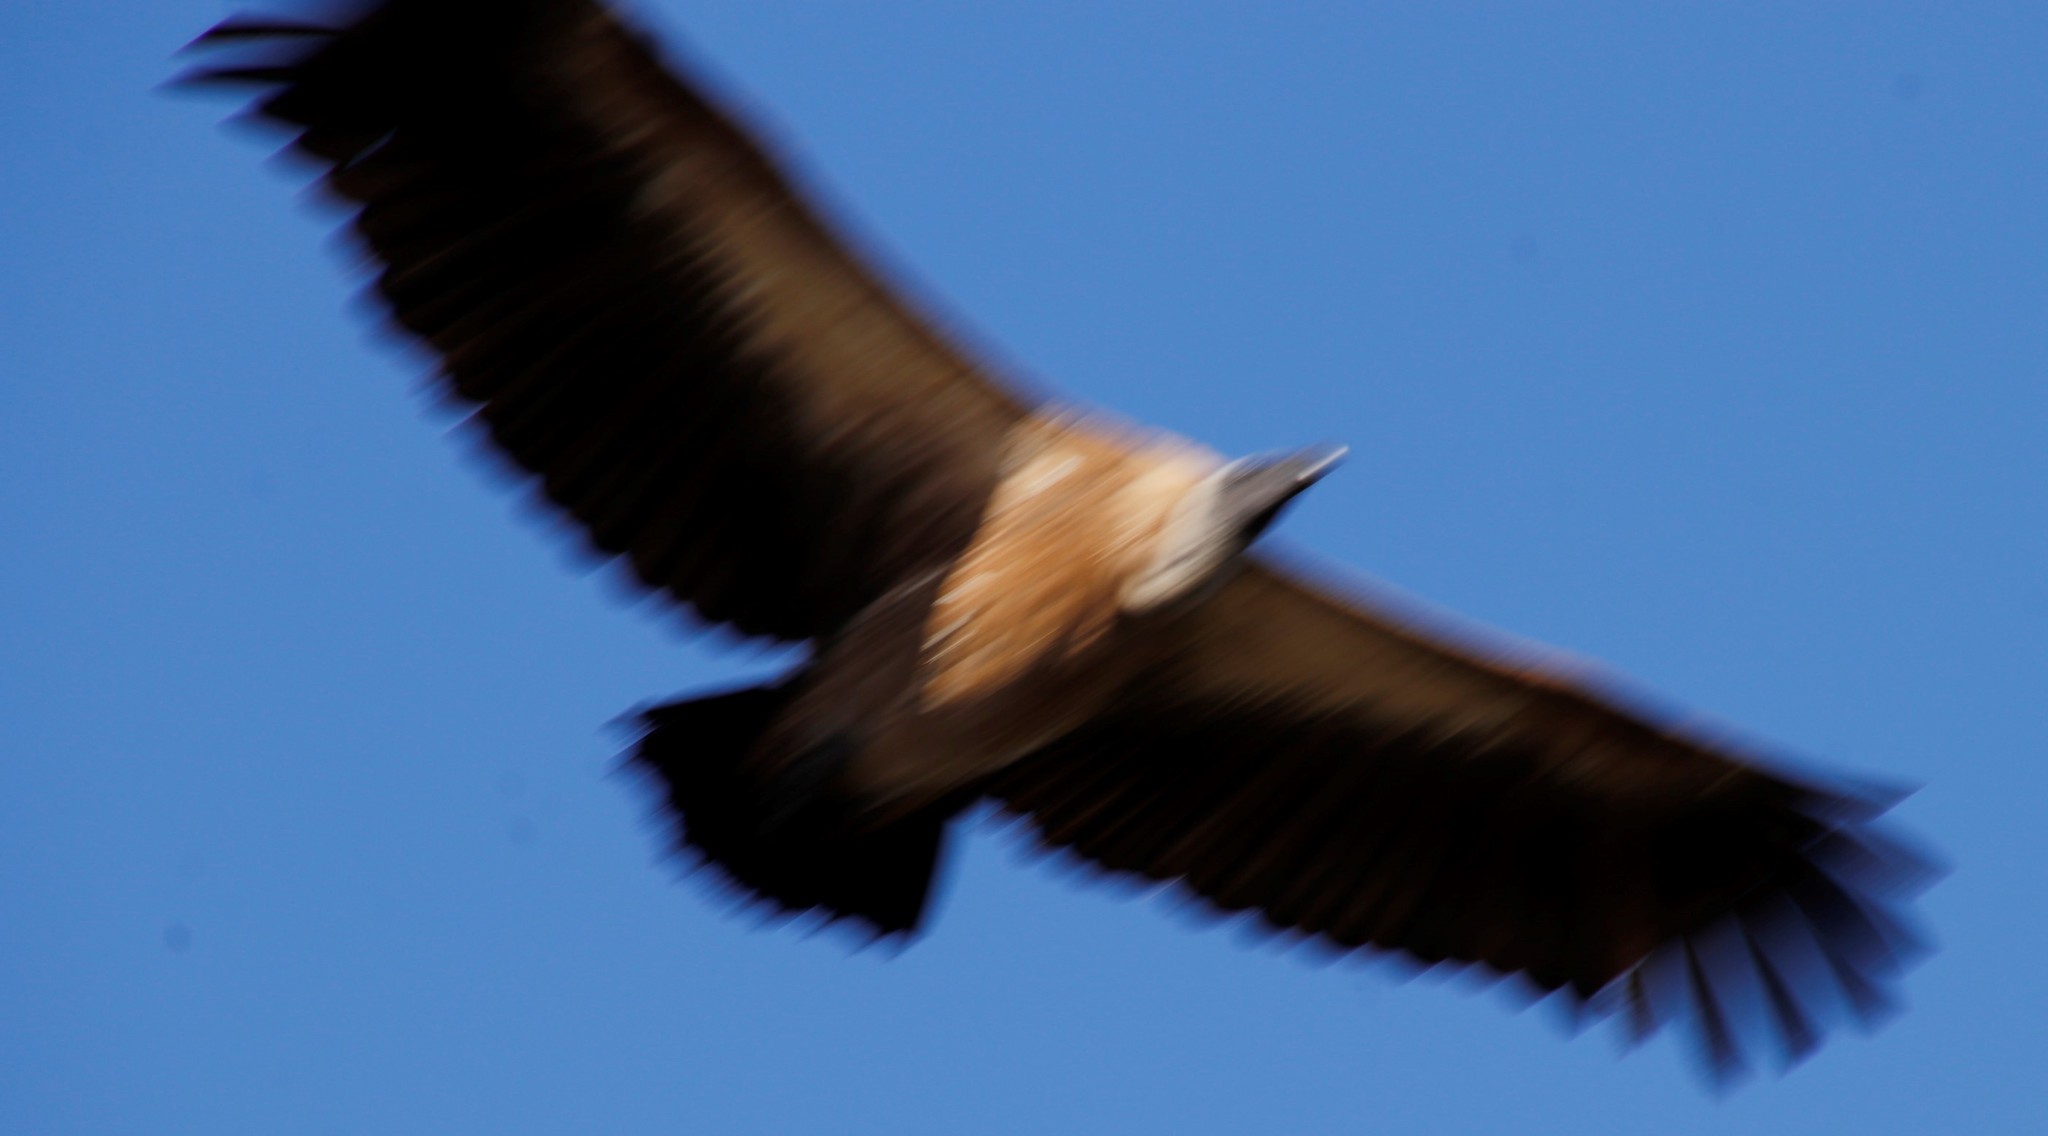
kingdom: Animalia
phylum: Chordata
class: Aves
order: Accipitriformes
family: Accipitridae
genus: Gyps
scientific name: Gyps africanus
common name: White-backed vulture
